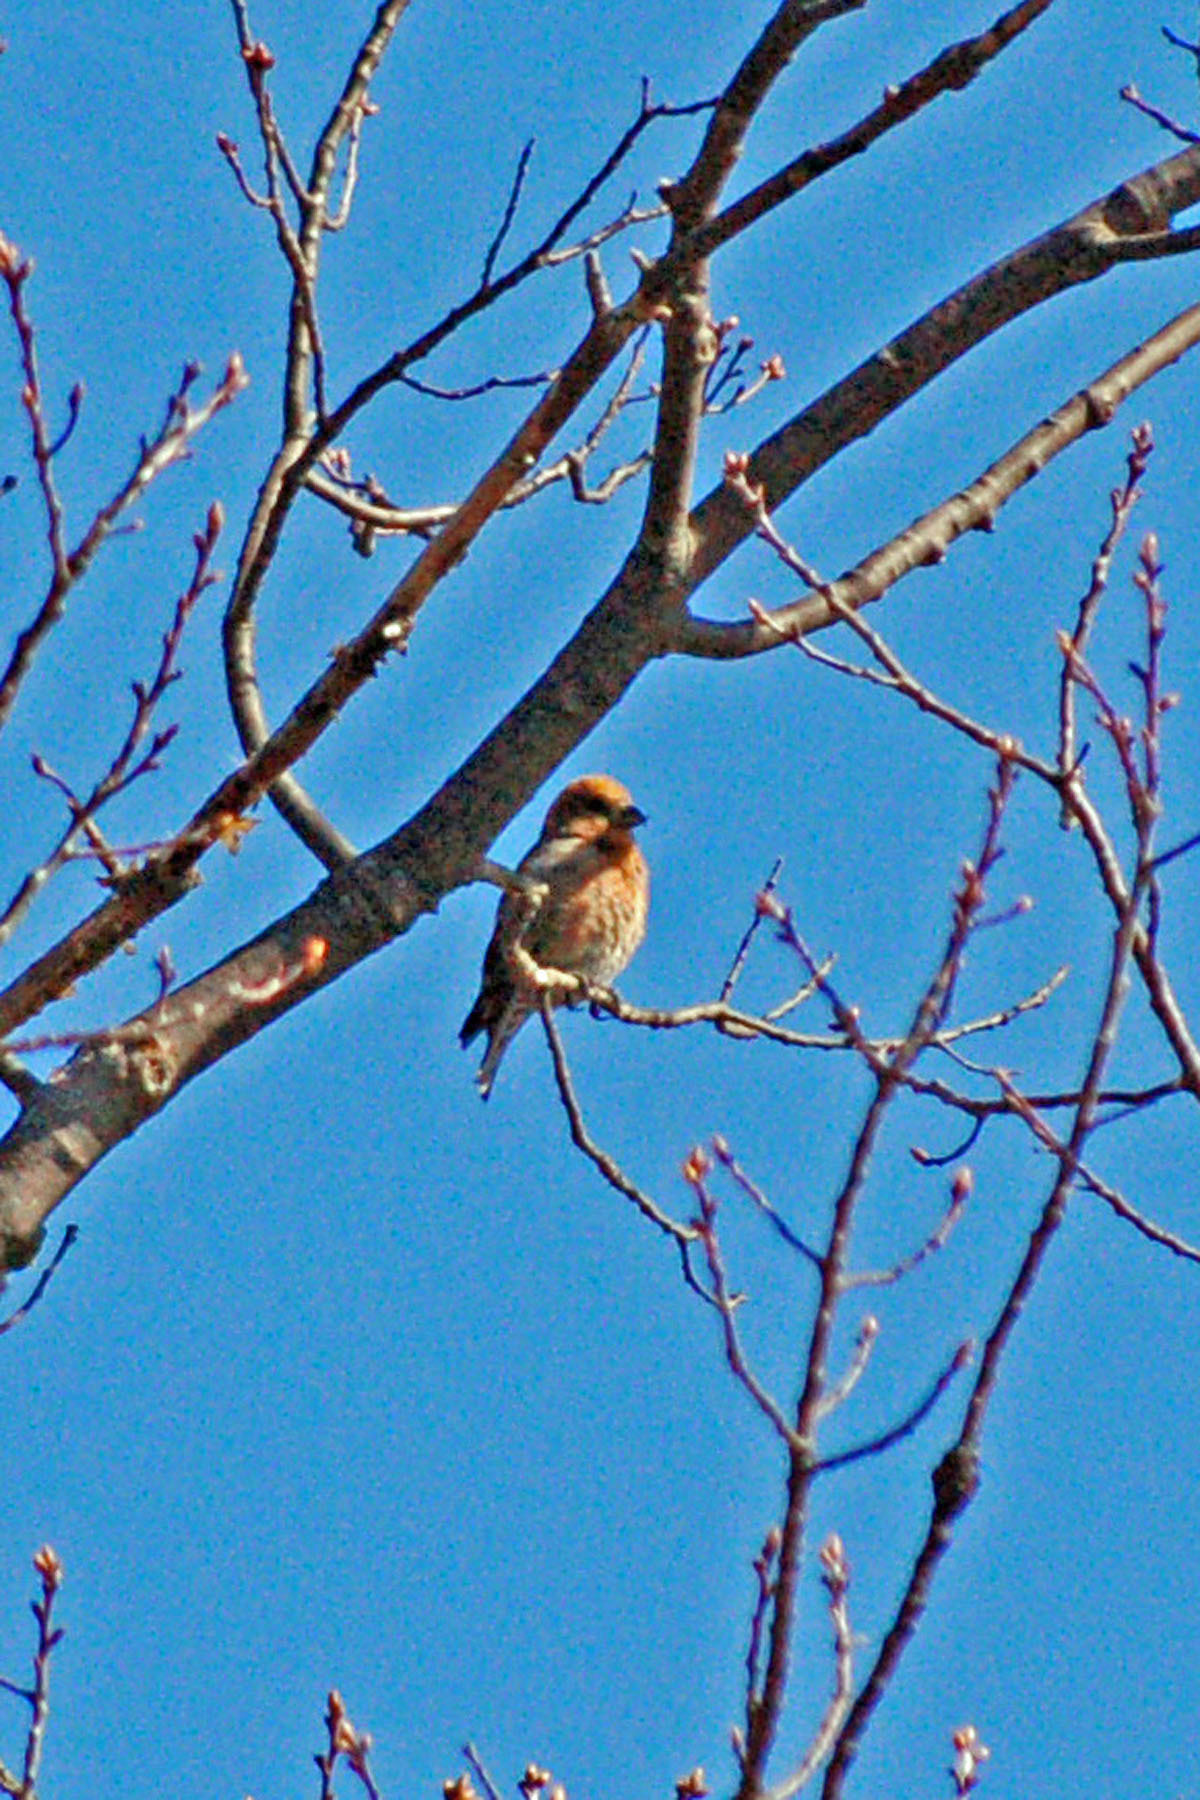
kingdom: Animalia
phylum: Chordata
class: Aves
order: Passeriformes
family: Fringillidae
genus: Loxia
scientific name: Loxia curvirostra
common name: Red crossbill
